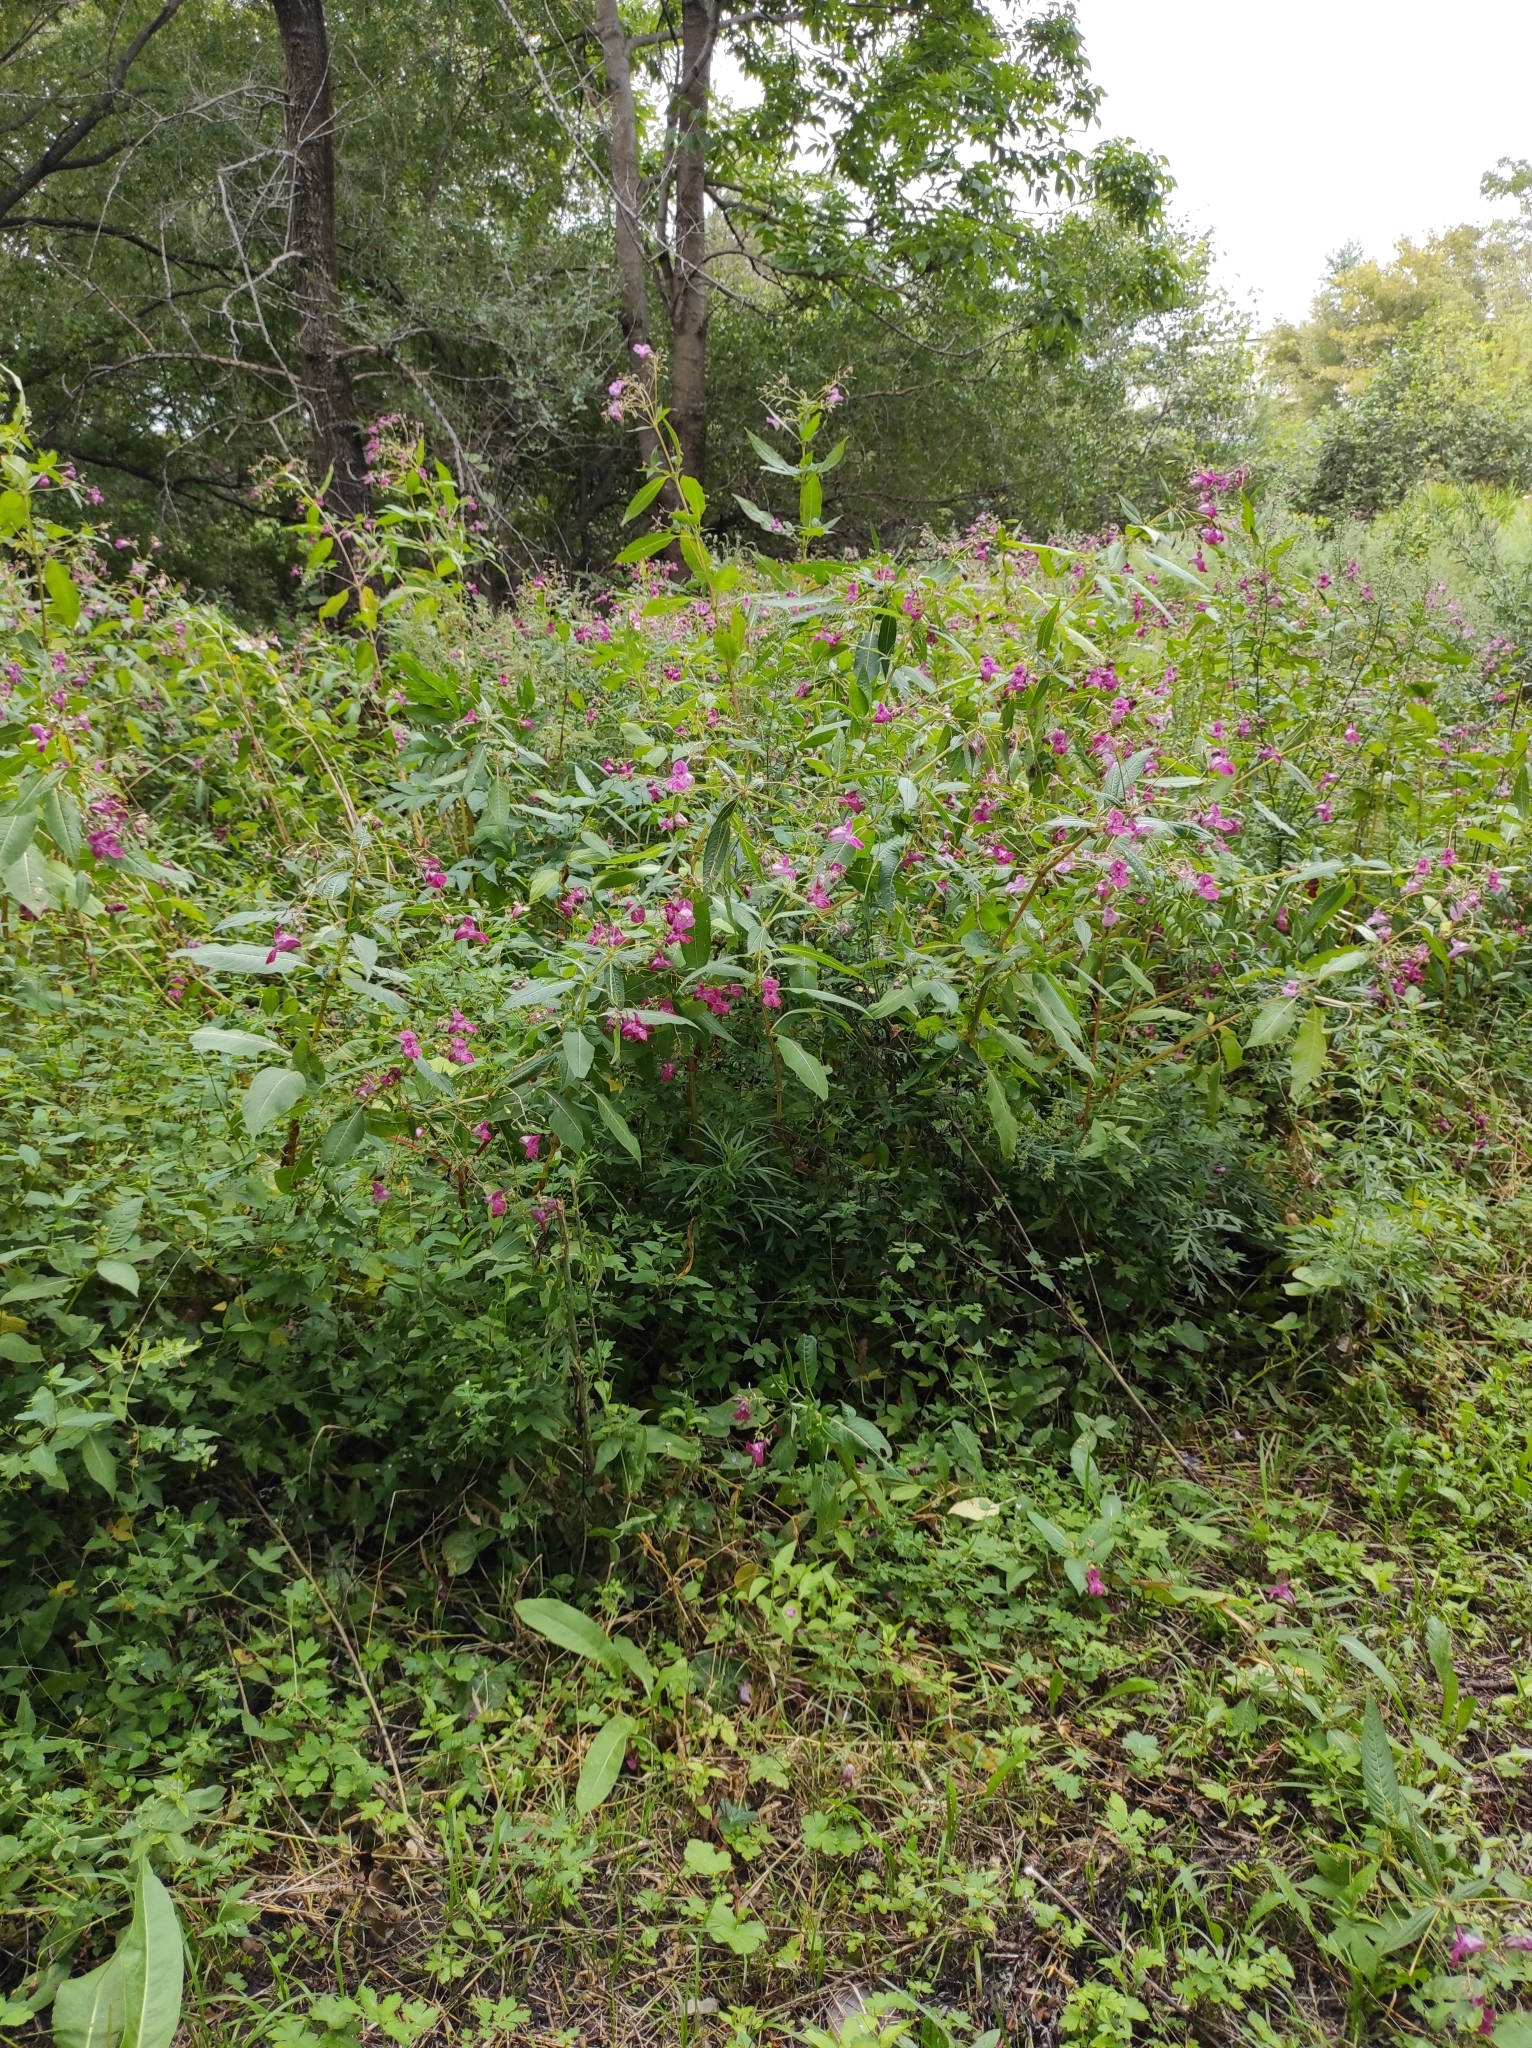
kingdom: Plantae
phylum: Tracheophyta
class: Magnoliopsida
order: Ericales
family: Balsaminaceae
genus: Impatiens
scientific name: Impatiens glandulifera
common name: Himalayan balsam
